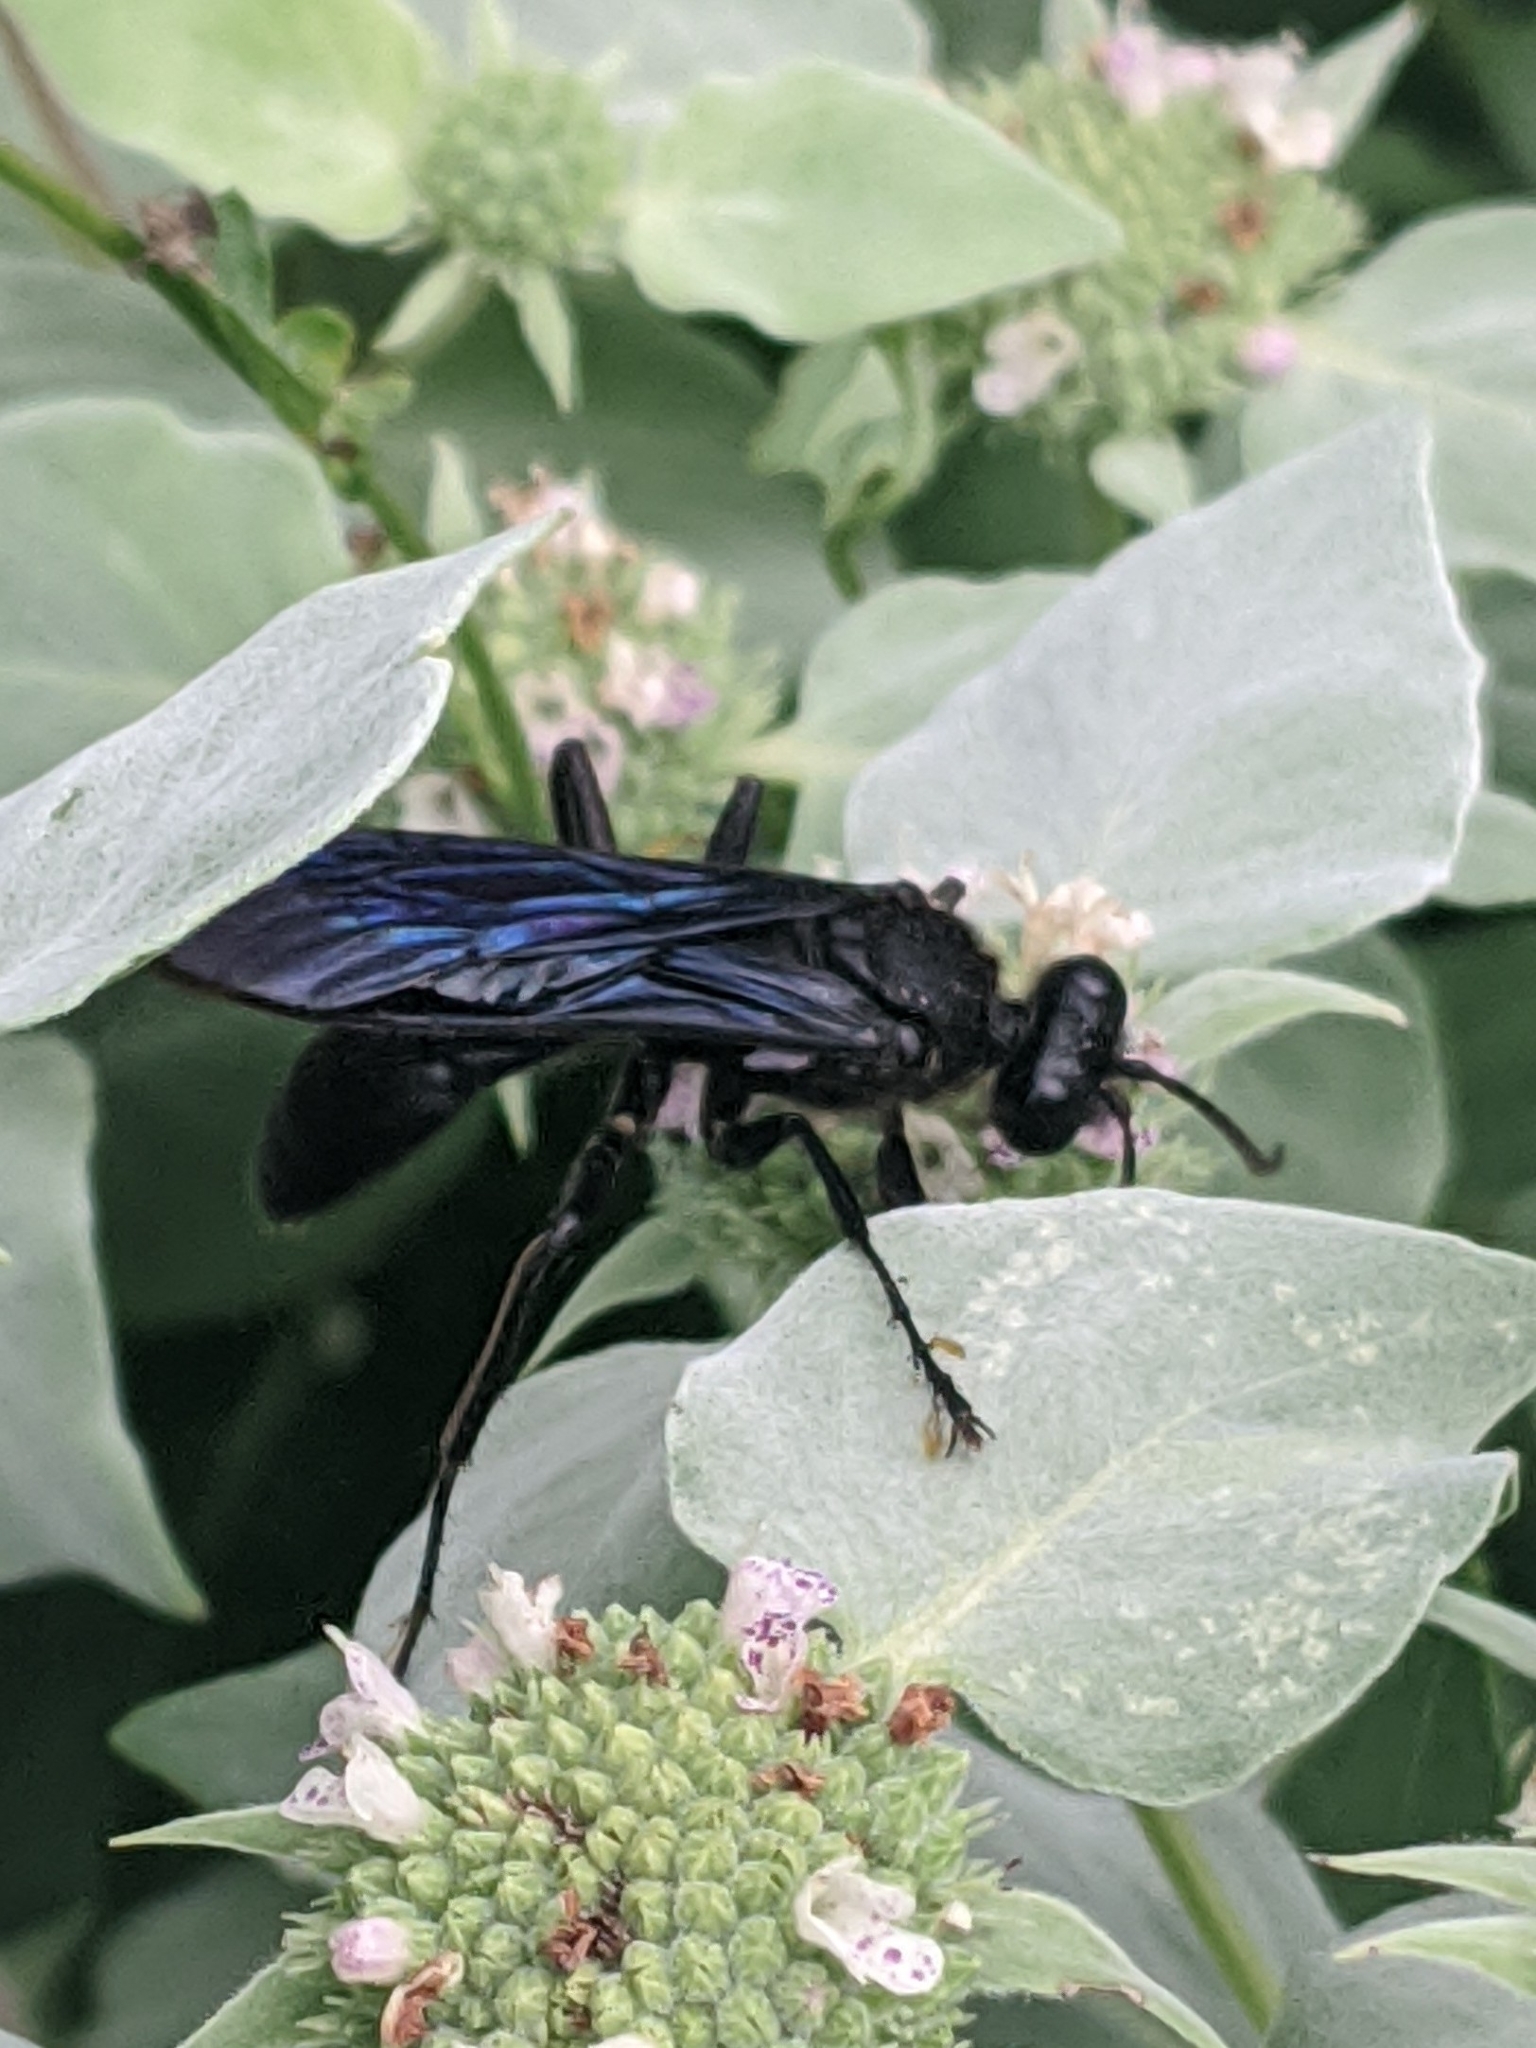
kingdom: Animalia
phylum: Arthropoda
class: Insecta
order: Hymenoptera
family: Sphecidae
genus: Sphex
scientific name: Sphex pensylvanicus
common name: Great black digger wasp
